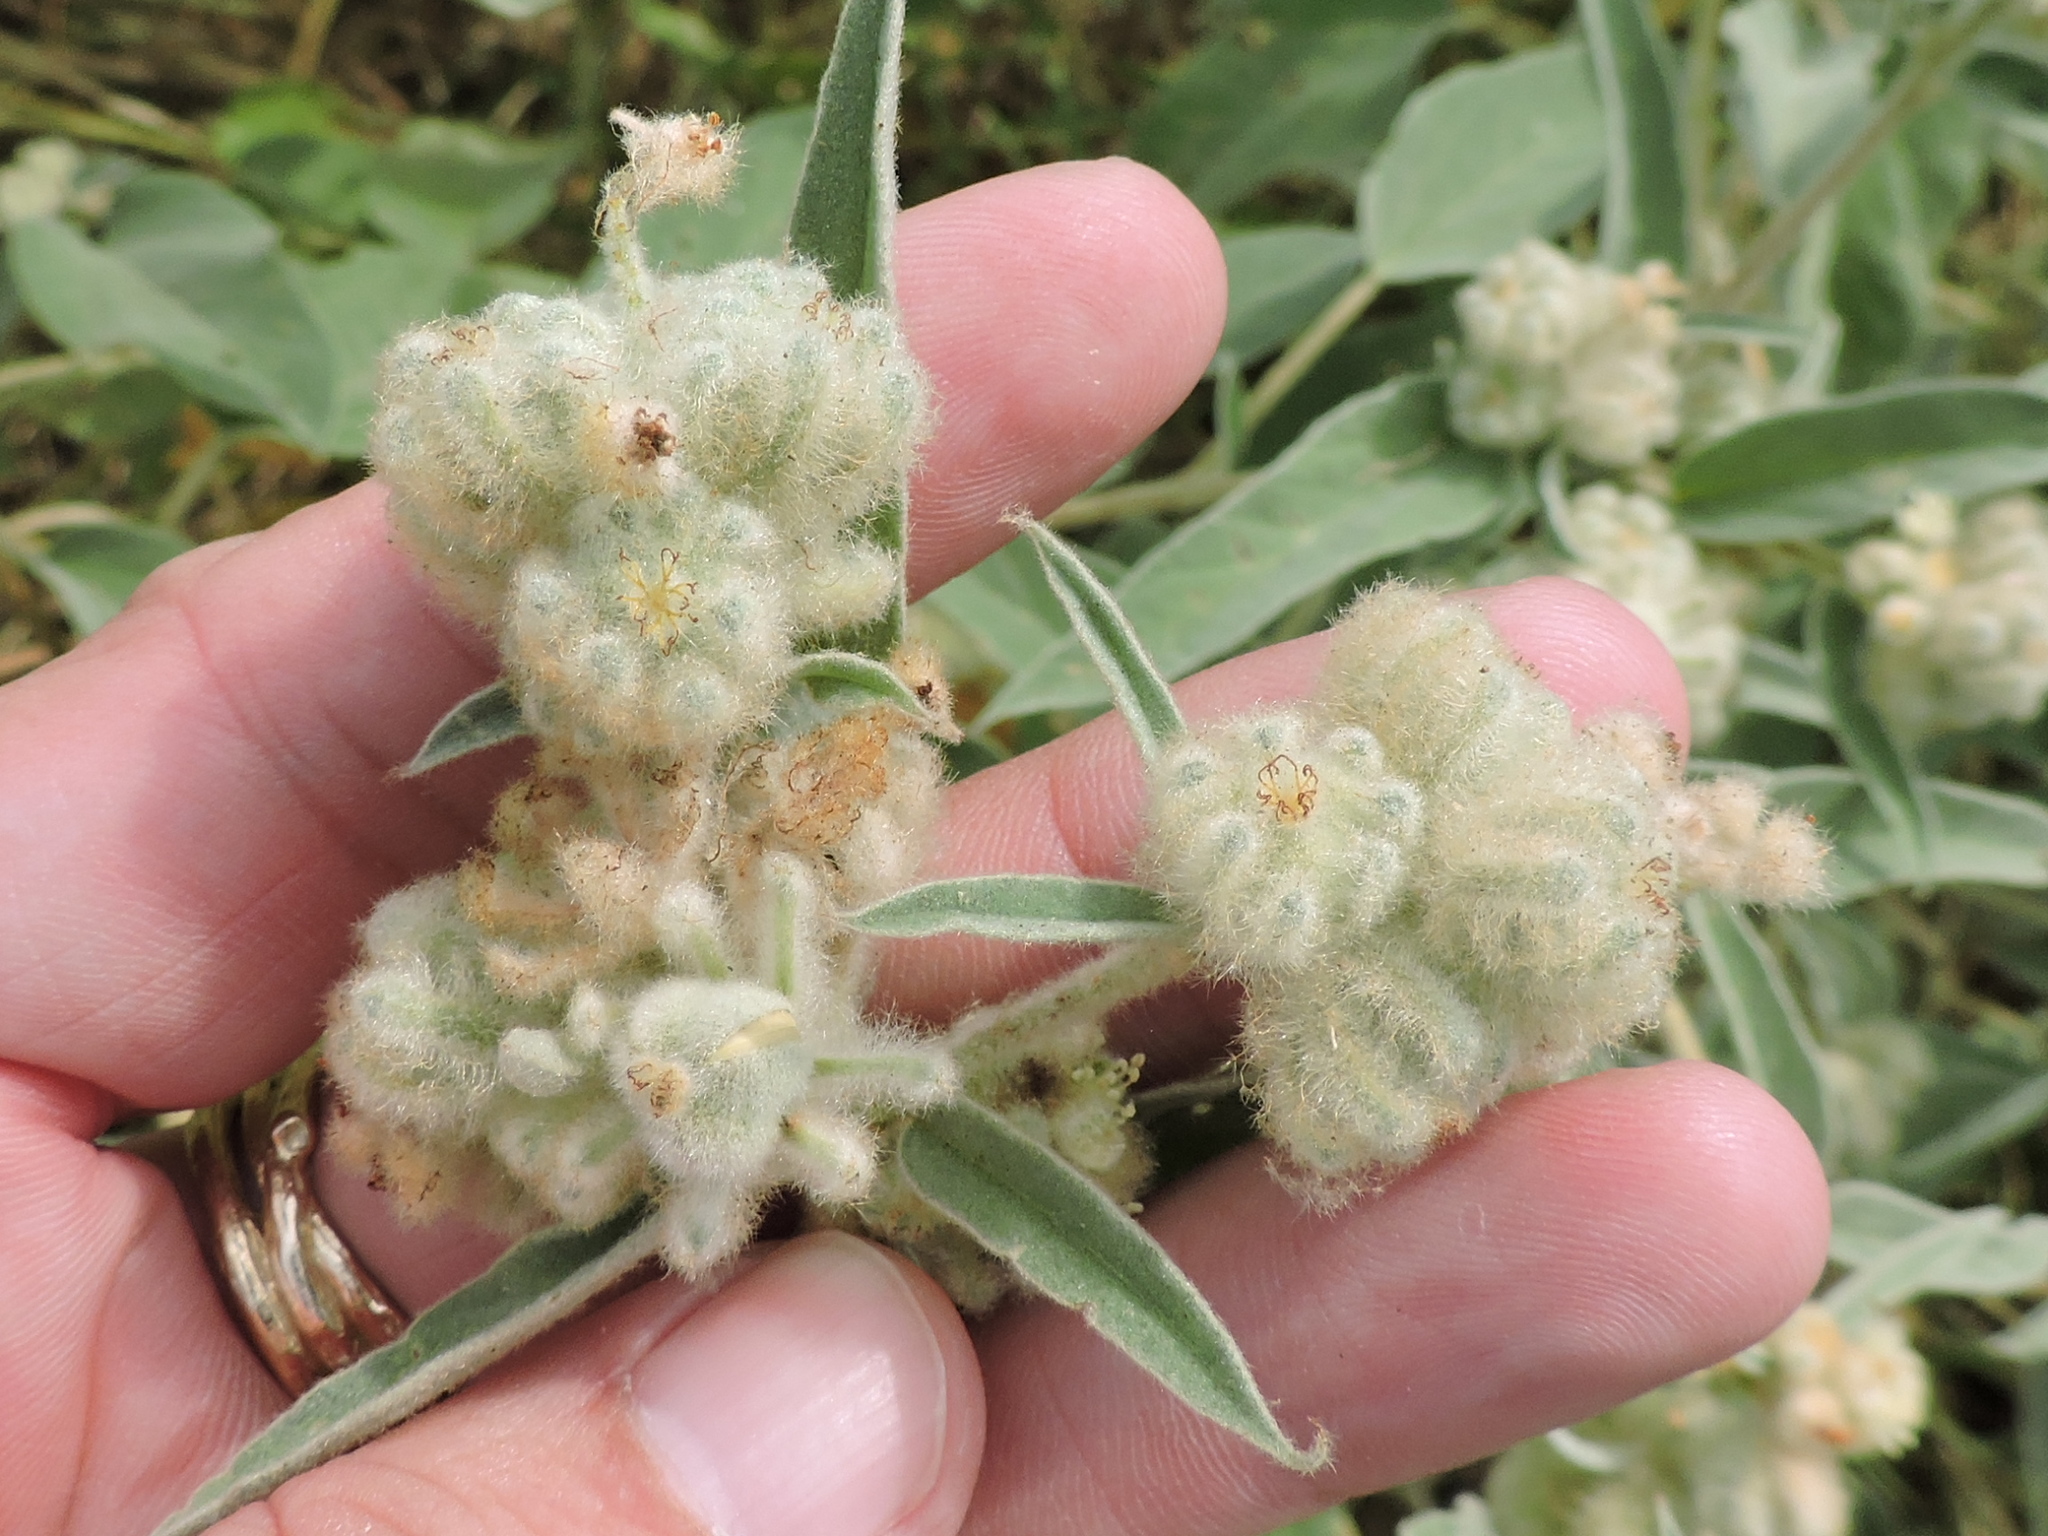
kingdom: Plantae
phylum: Tracheophyta
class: Magnoliopsida
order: Malpighiales
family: Euphorbiaceae
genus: Croton
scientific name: Croton lindheimeri
